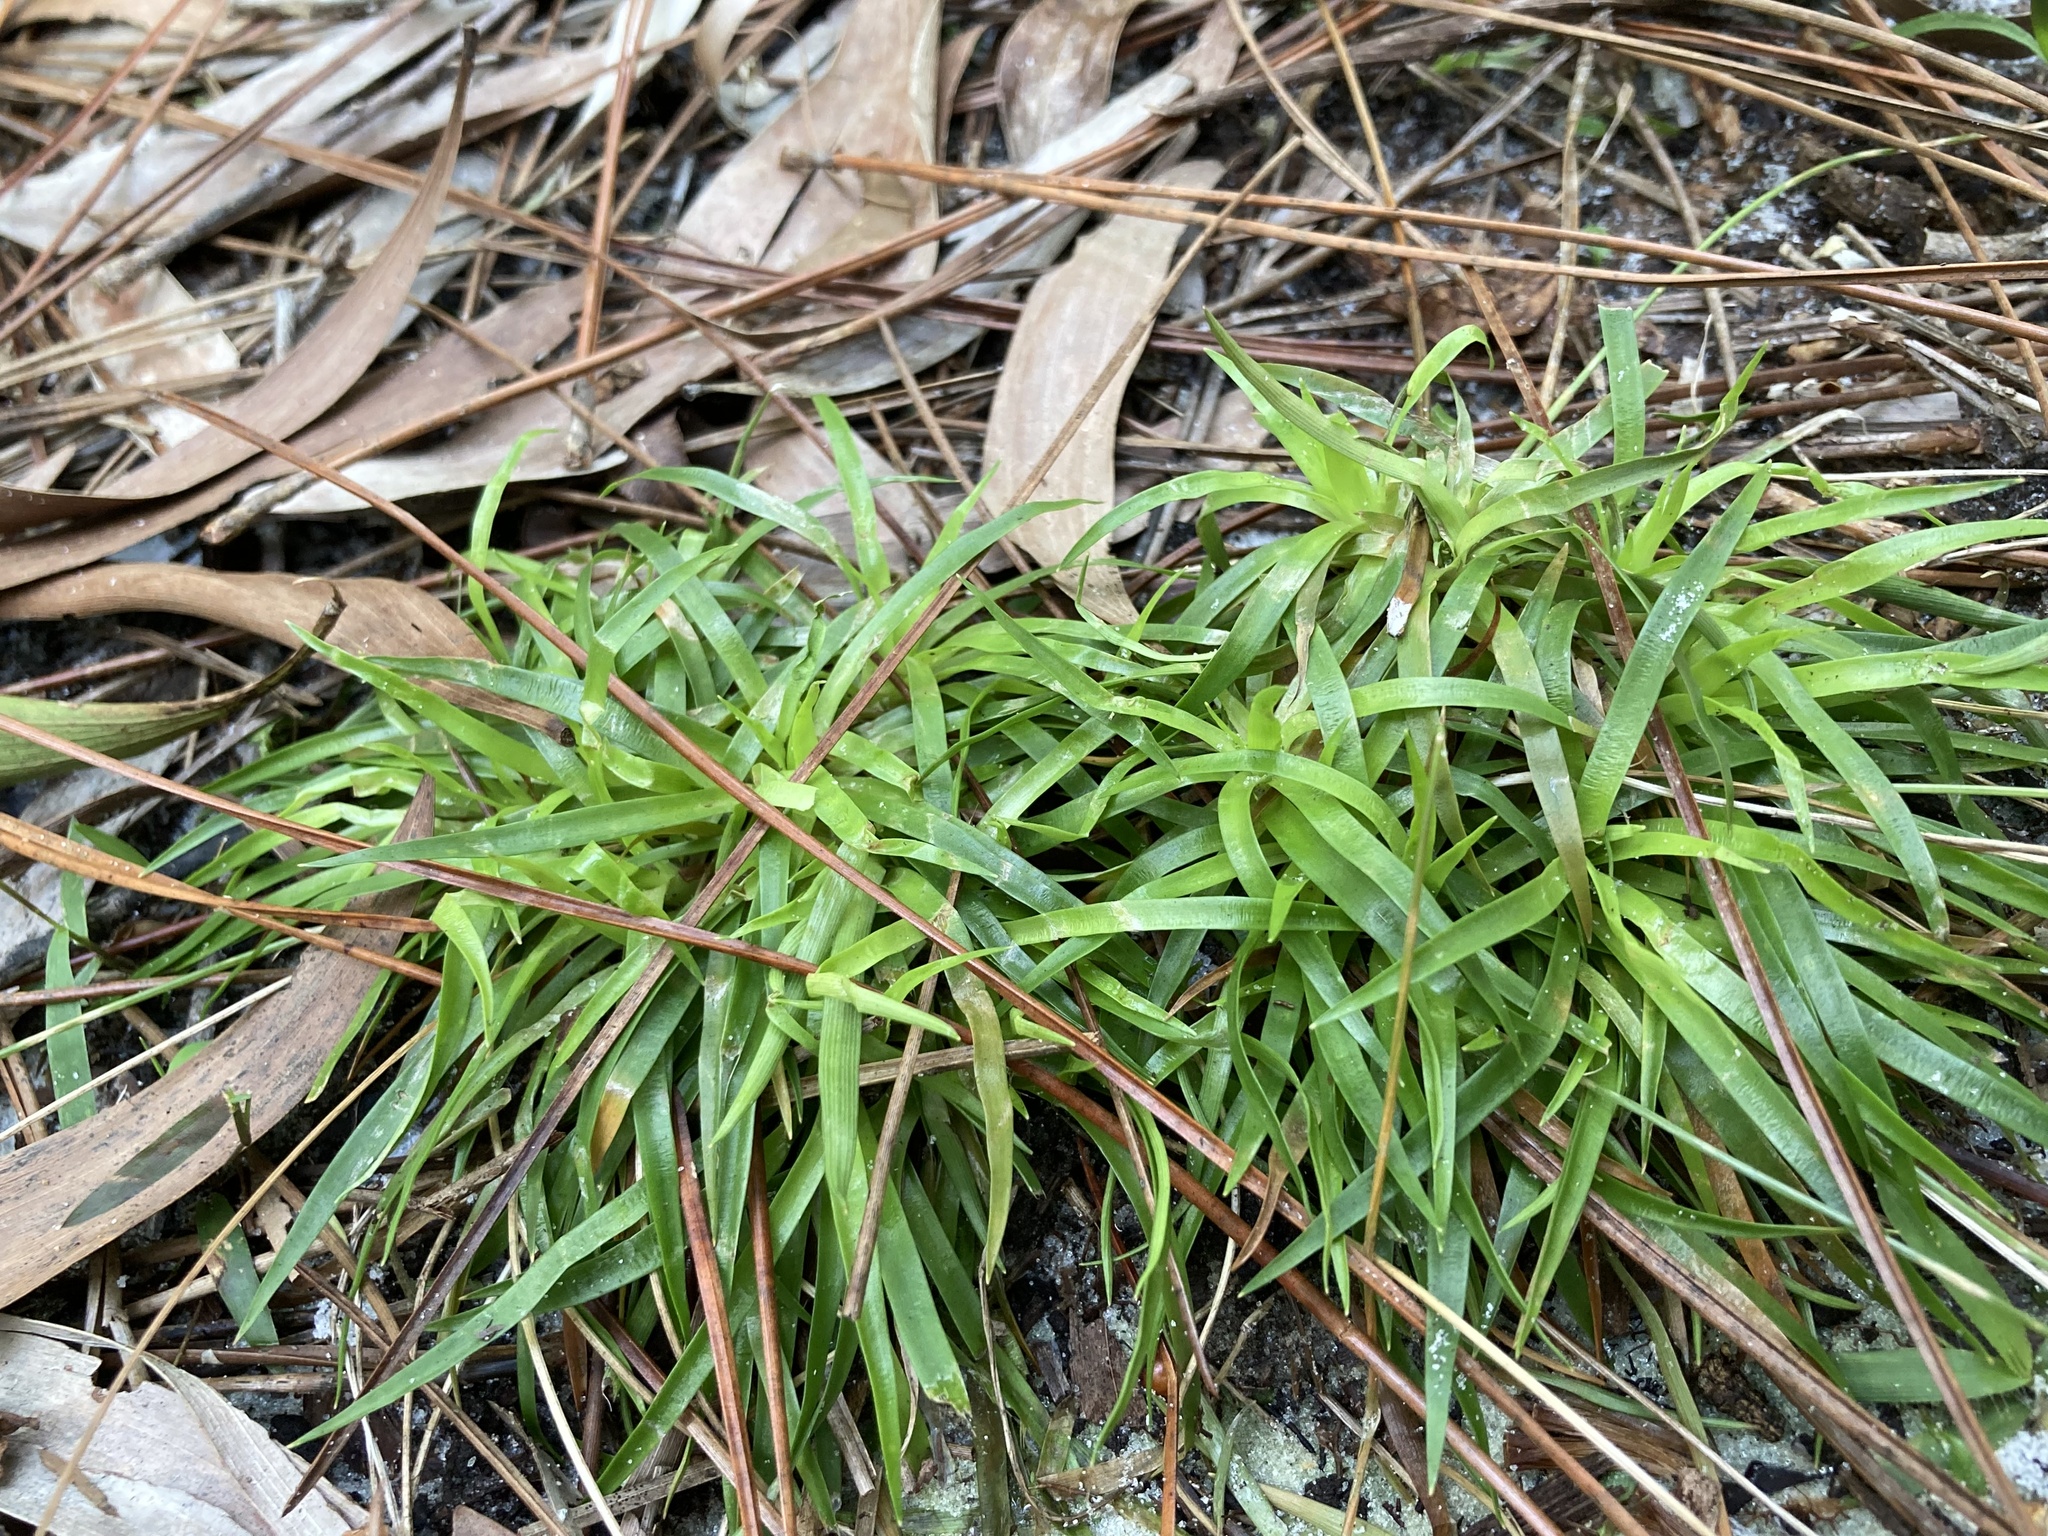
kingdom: Plantae
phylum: Tracheophyta
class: Liliopsida
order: Poales
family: Eriocaulaceae
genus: Paepalanthus
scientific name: Paepalanthus anceps
